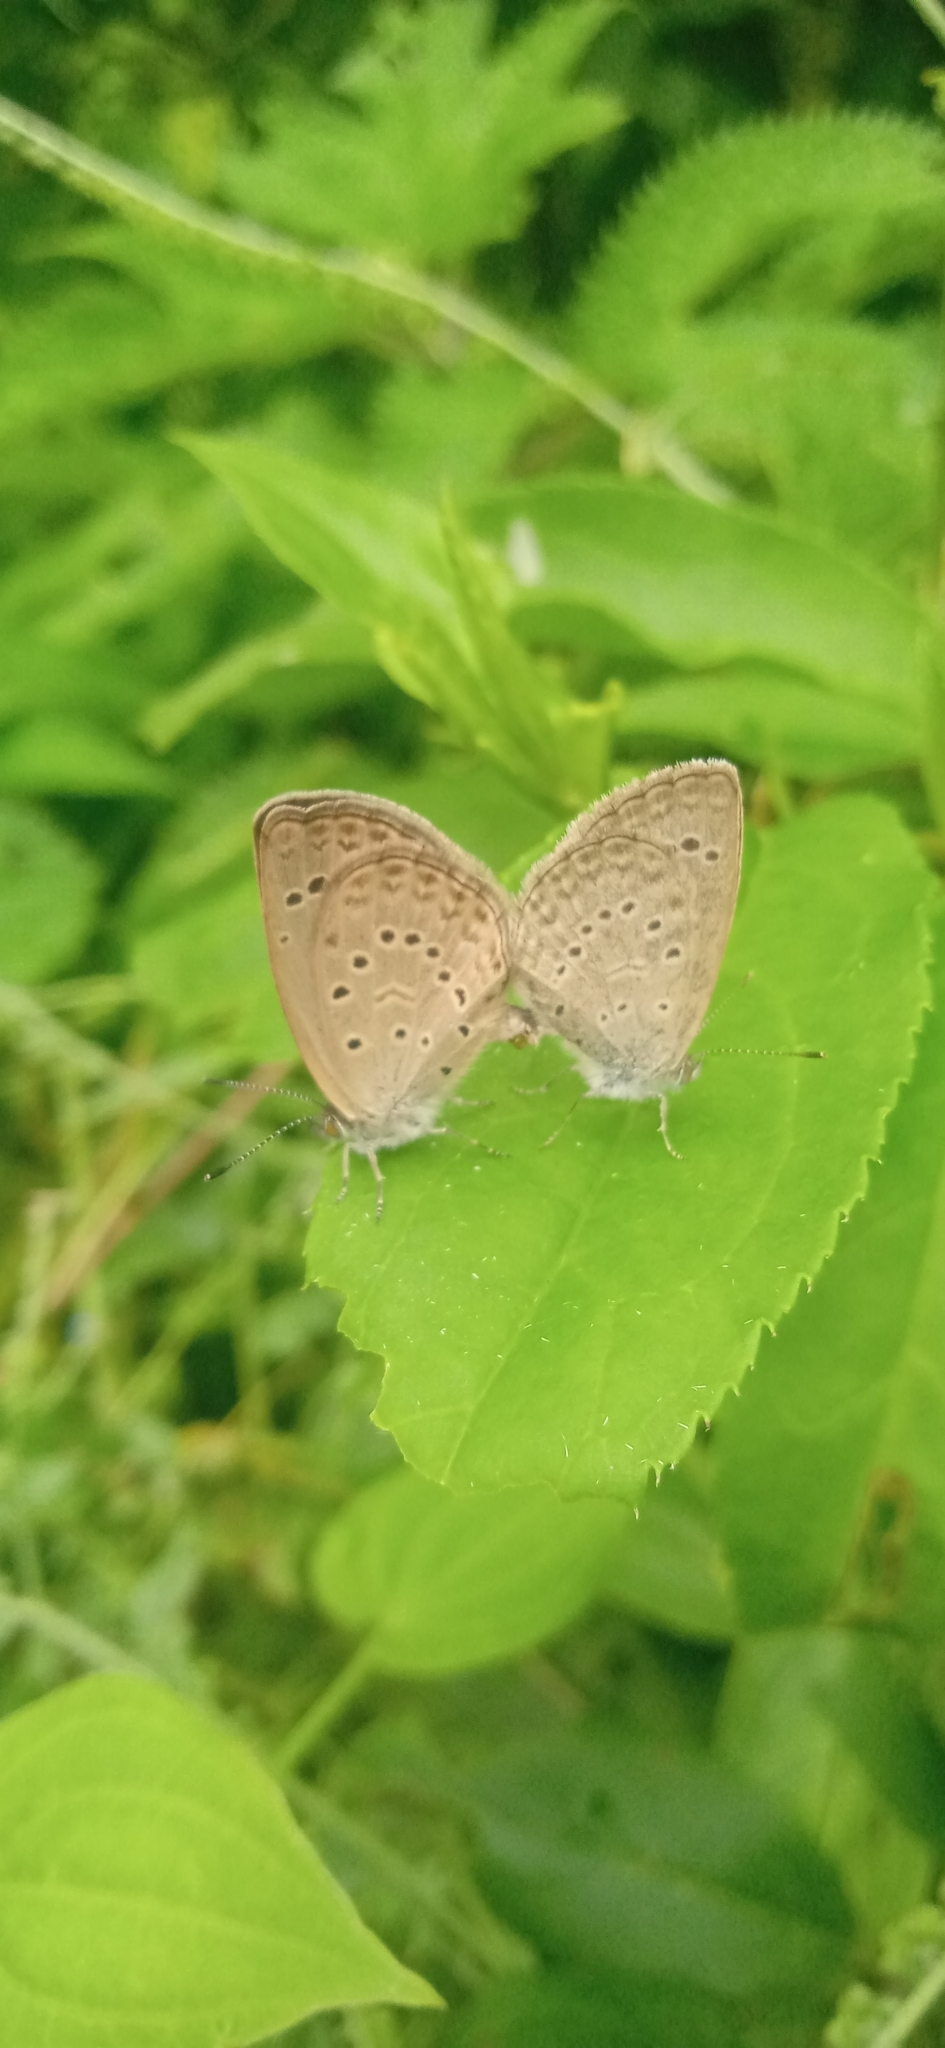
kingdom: Animalia
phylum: Arthropoda
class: Insecta
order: Lepidoptera
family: Lycaenidae
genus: Zizeeria
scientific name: Zizeeria karsandra
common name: Dark grass blue
